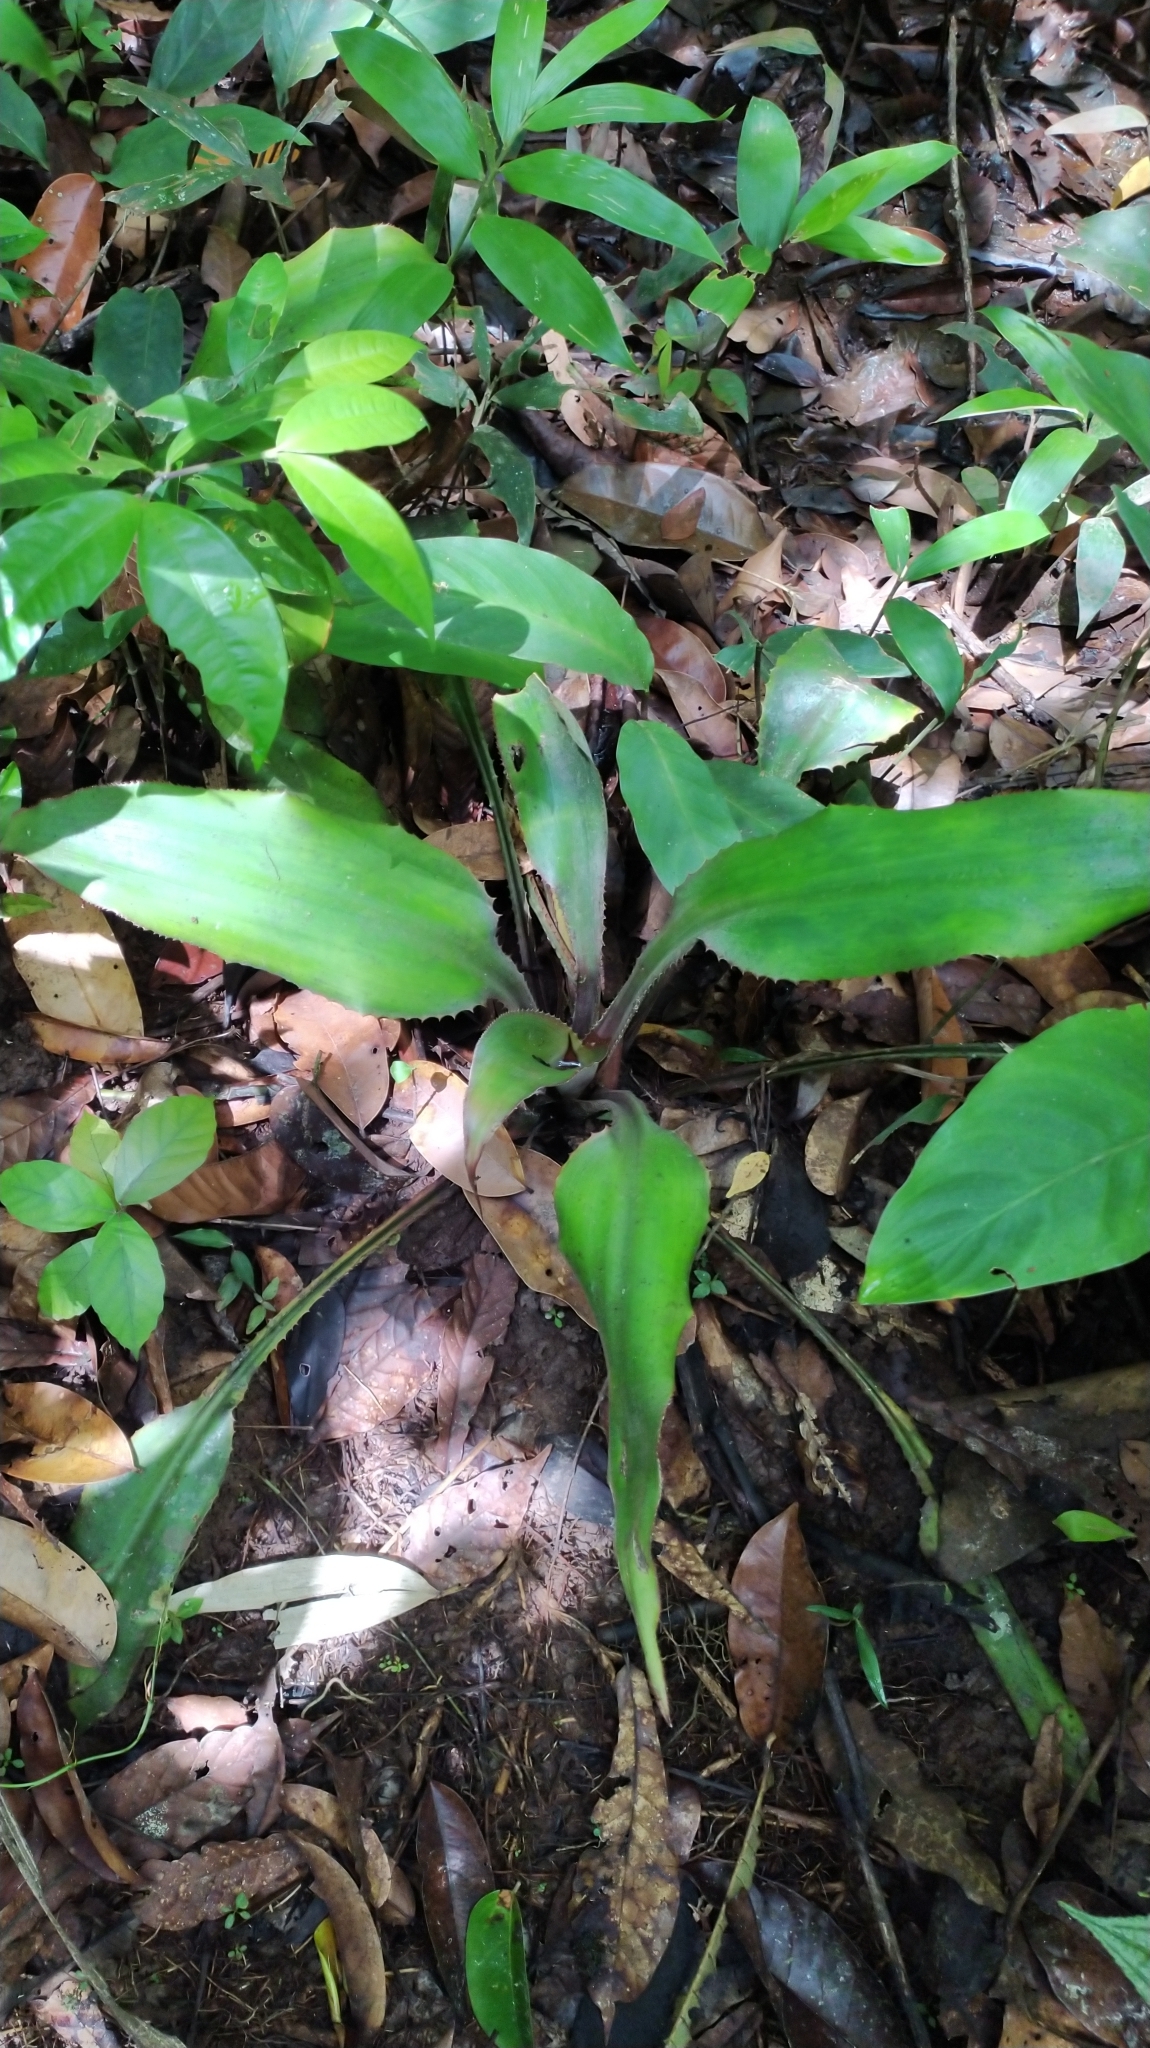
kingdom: Plantae
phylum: Tracheophyta
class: Liliopsida
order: Poales
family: Bromeliaceae
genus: Disteganthus
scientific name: Disteganthus basilateralis
